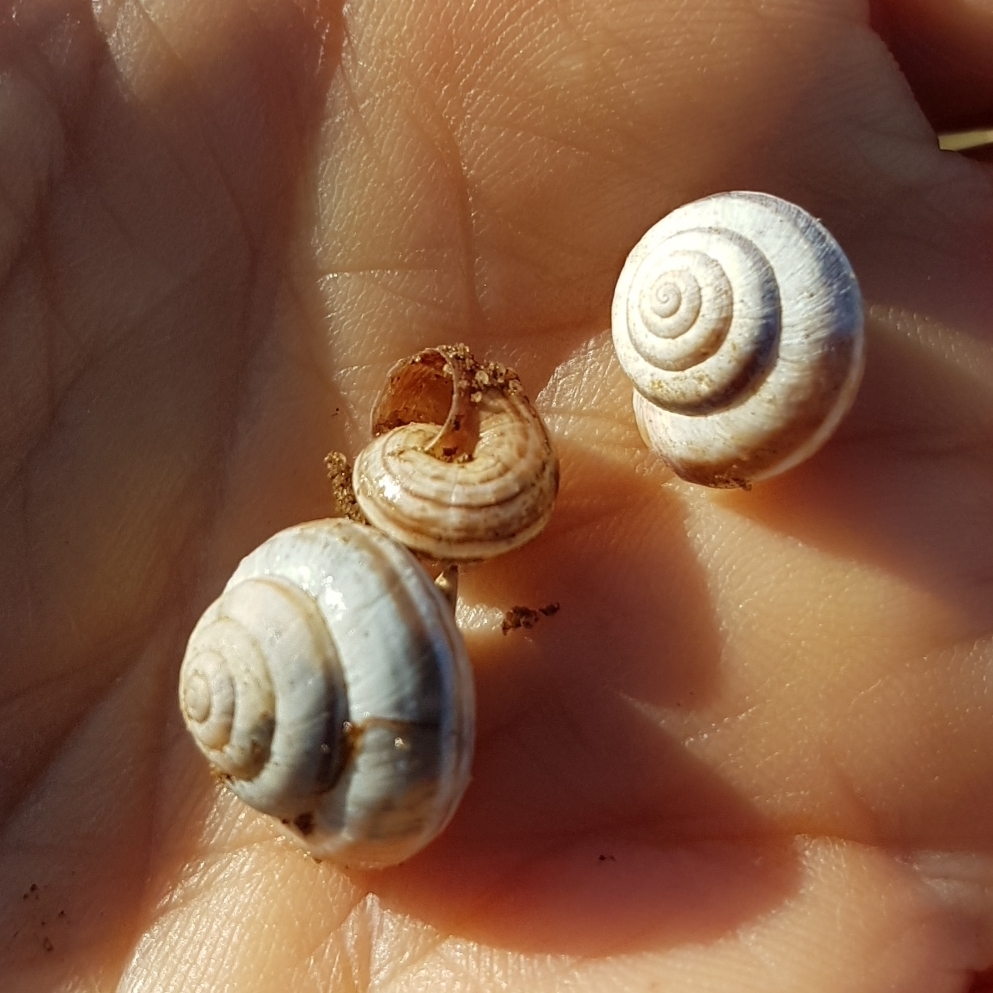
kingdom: Animalia
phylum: Mollusca
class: Gastropoda
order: Stylommatophora
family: Geomitridae
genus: Cernuella
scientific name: Cernuella virgata
